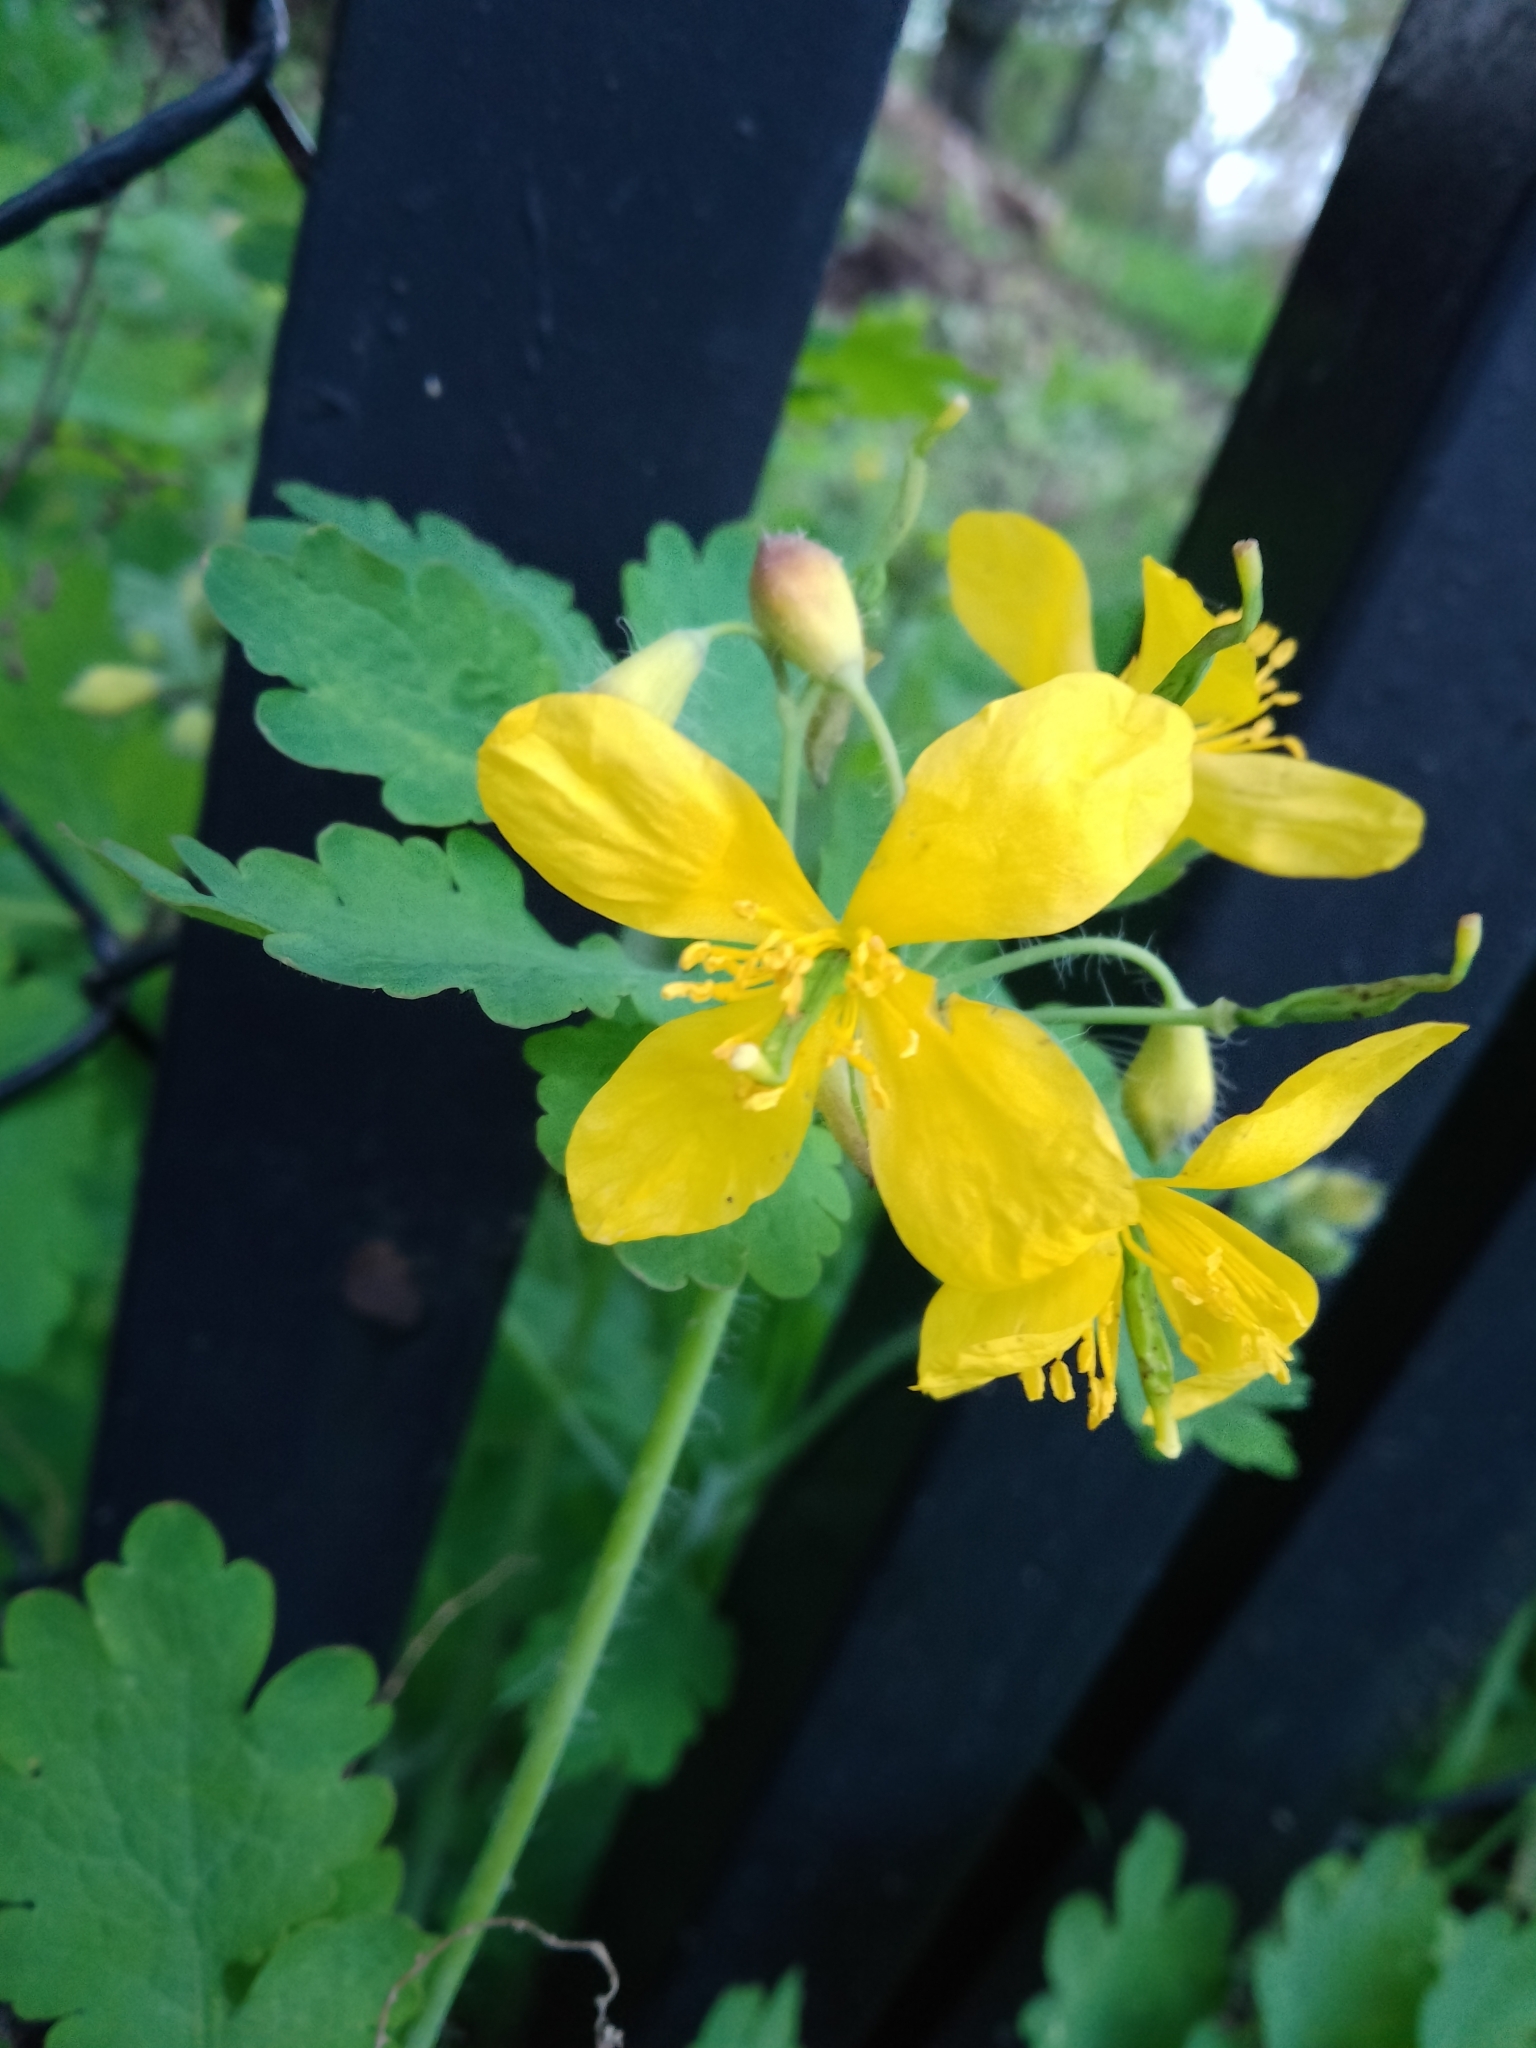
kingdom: Plantae
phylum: Tracheophyta
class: Magnoliopsida
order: Ranunculales
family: Papaveraceae
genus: Chelidonium
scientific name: Chelidonium majus
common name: Greater celandine
